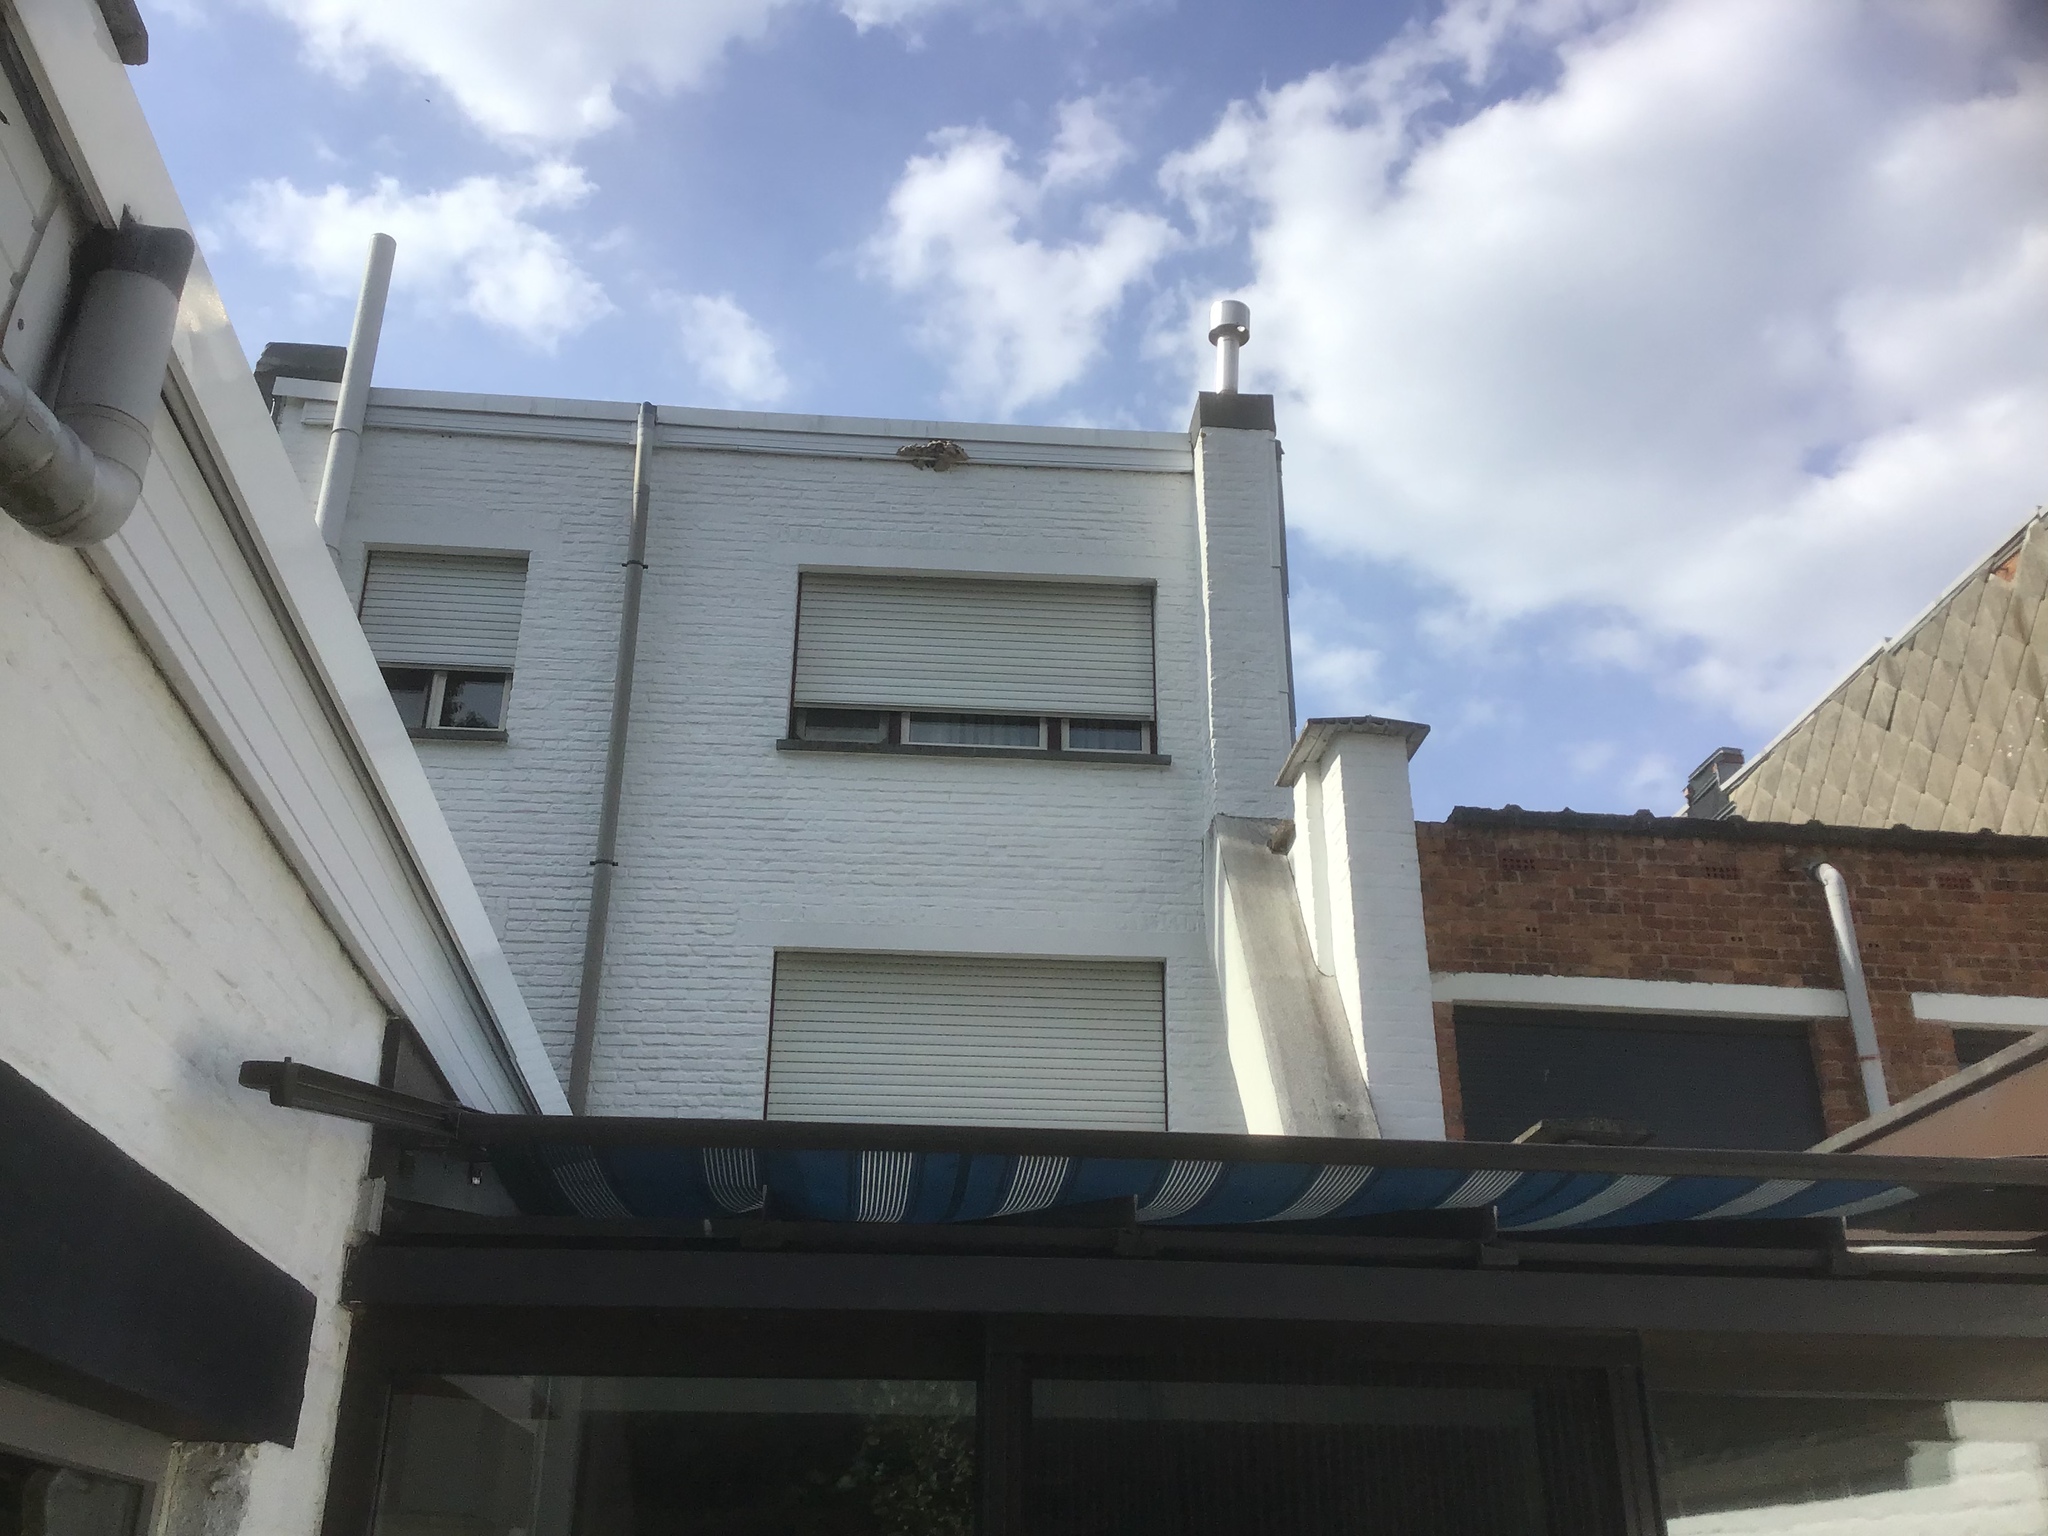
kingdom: Animalia
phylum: Arthropoda
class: Insecta
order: Hymenoptera
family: Vespidae
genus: Vespa
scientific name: Vespa velutina
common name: Asian hornet
